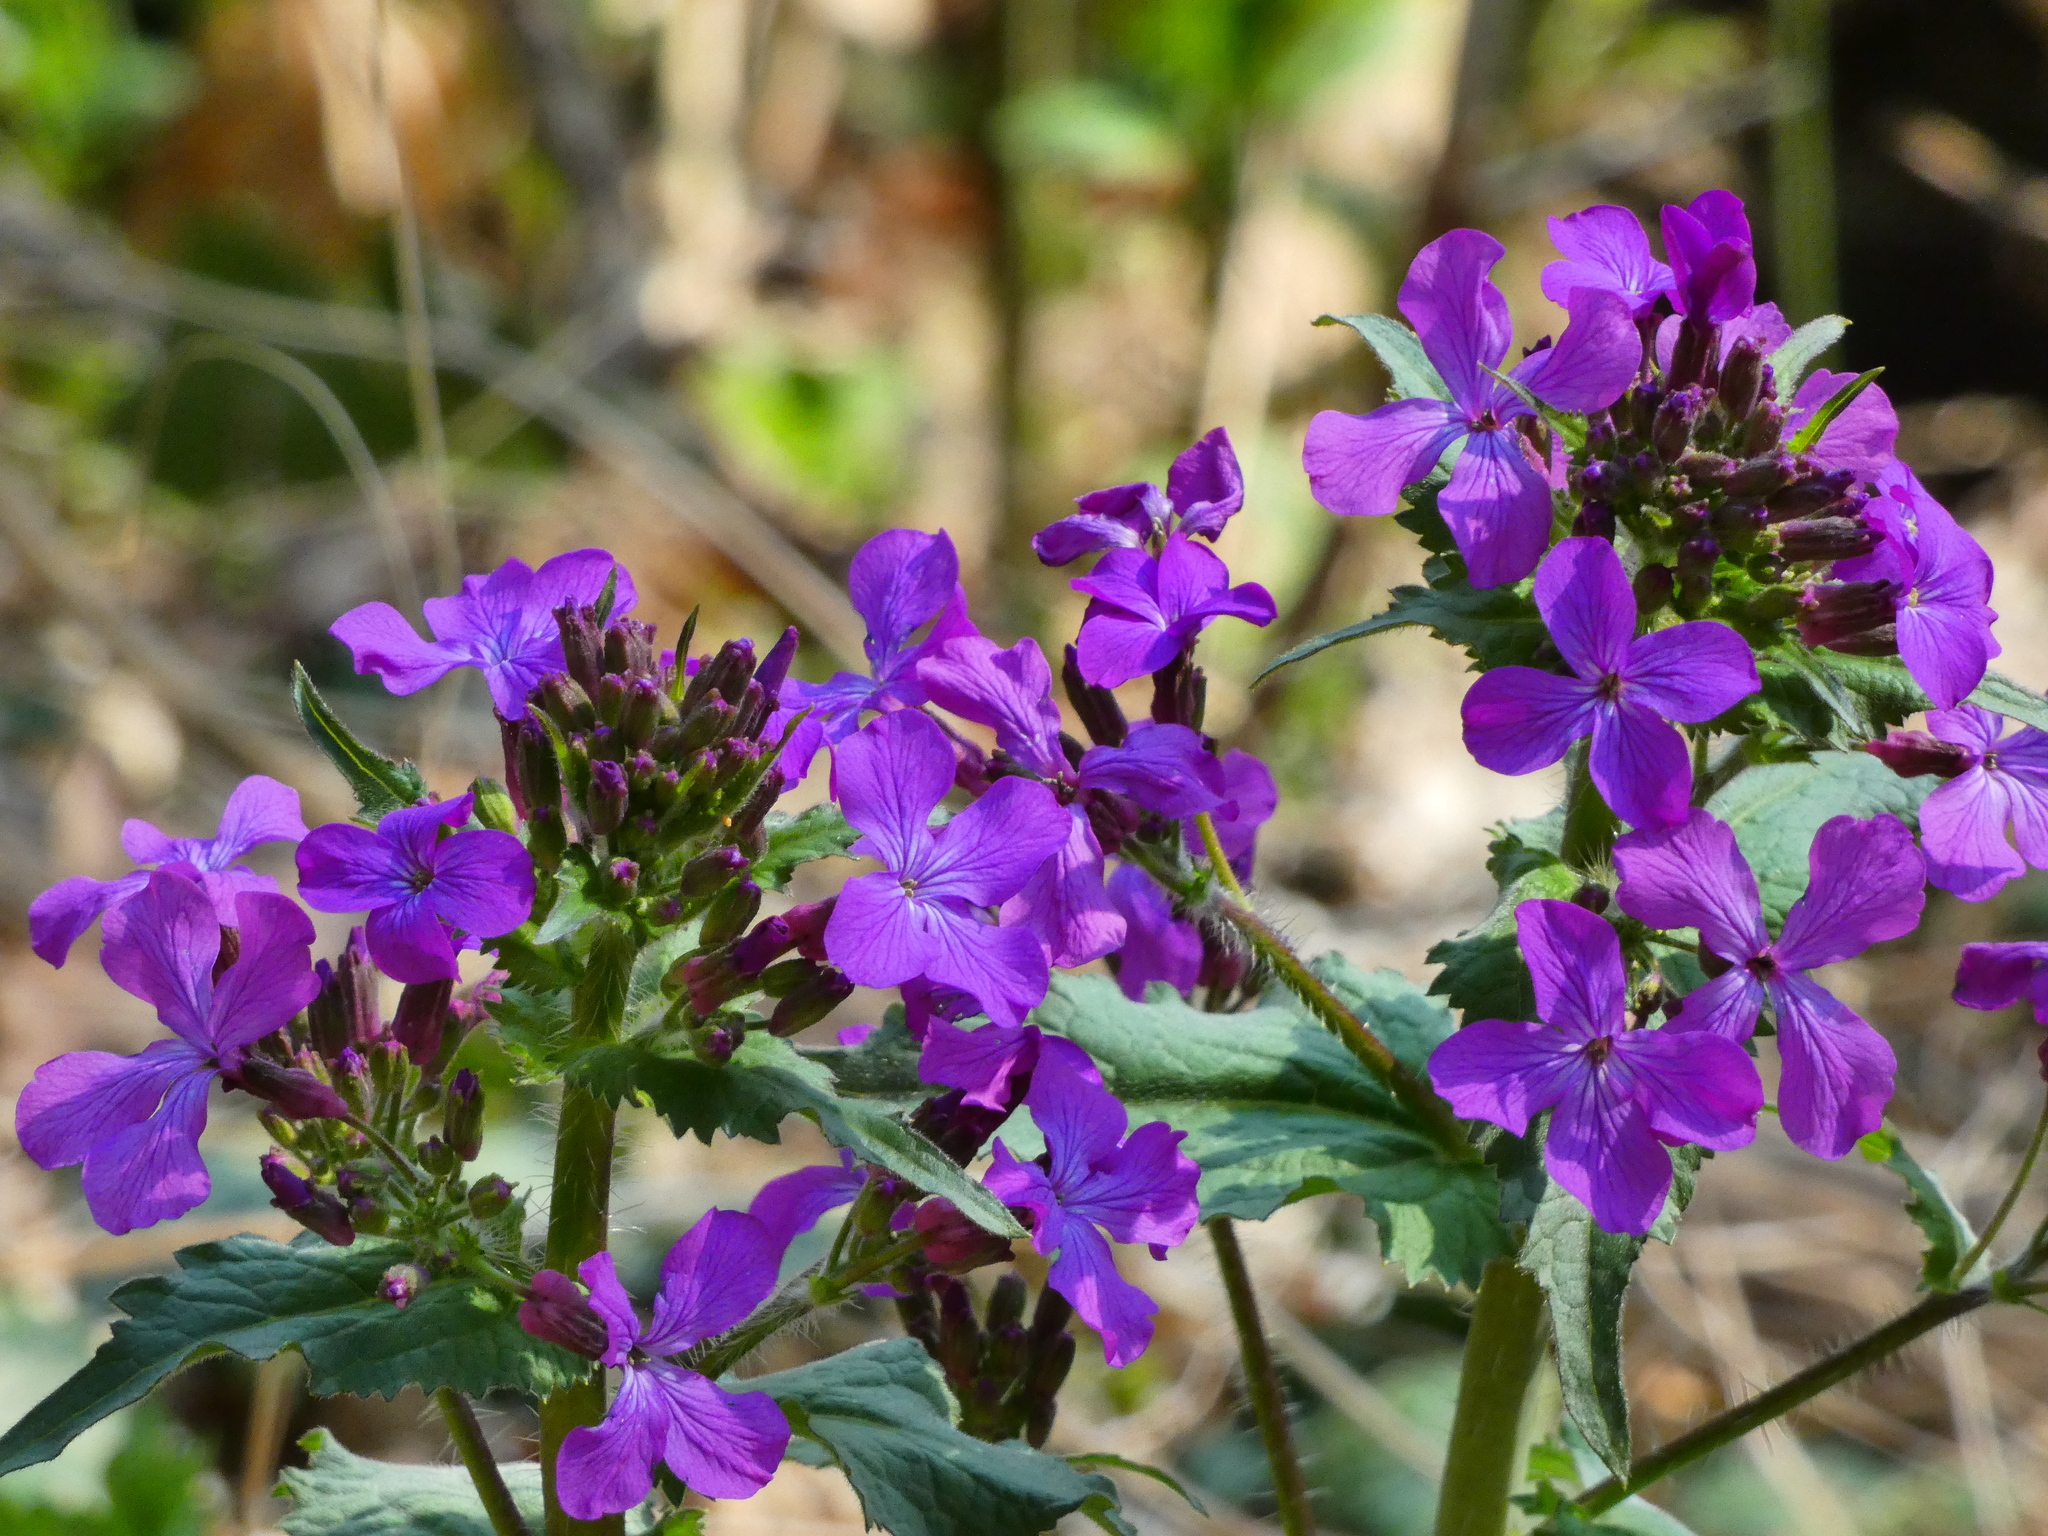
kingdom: Plantae
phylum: Tracheophyta
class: Magnoliopsida
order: Brassicales
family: Brassicaceae
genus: Lunaria
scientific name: Lunaria annua
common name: Honesty
